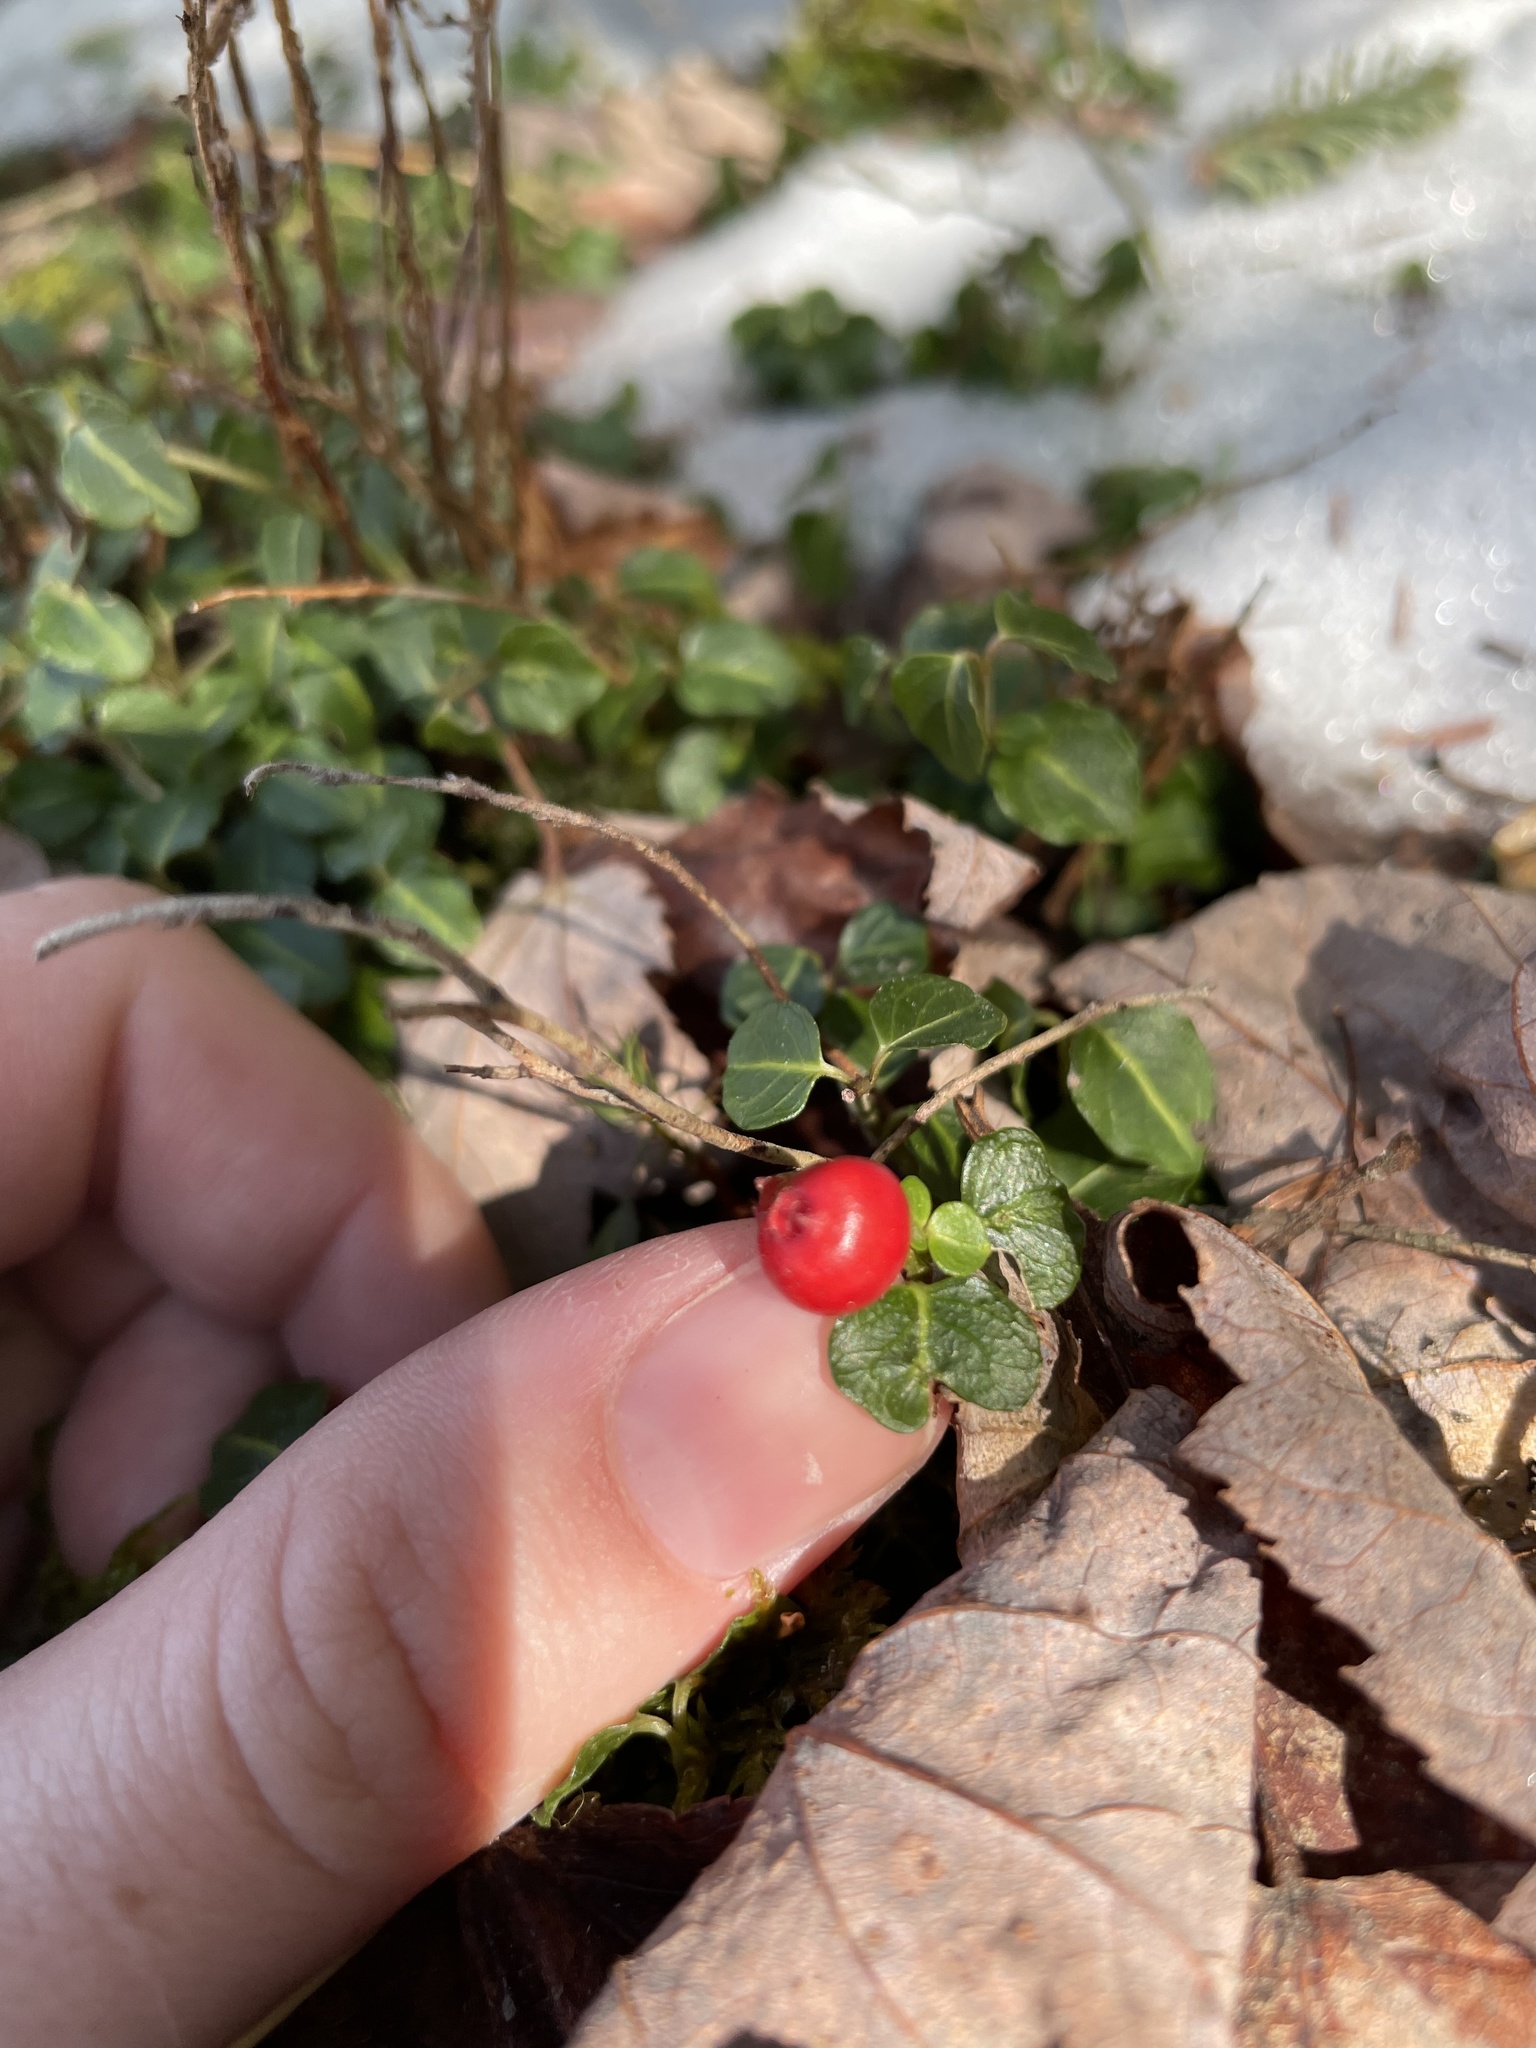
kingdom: Plantae
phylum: Tracheophyta
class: Magnoliopsida
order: Gentianales
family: Rubiaceae
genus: Mitchella
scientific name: Mitchella repens
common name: Partridge-berry
